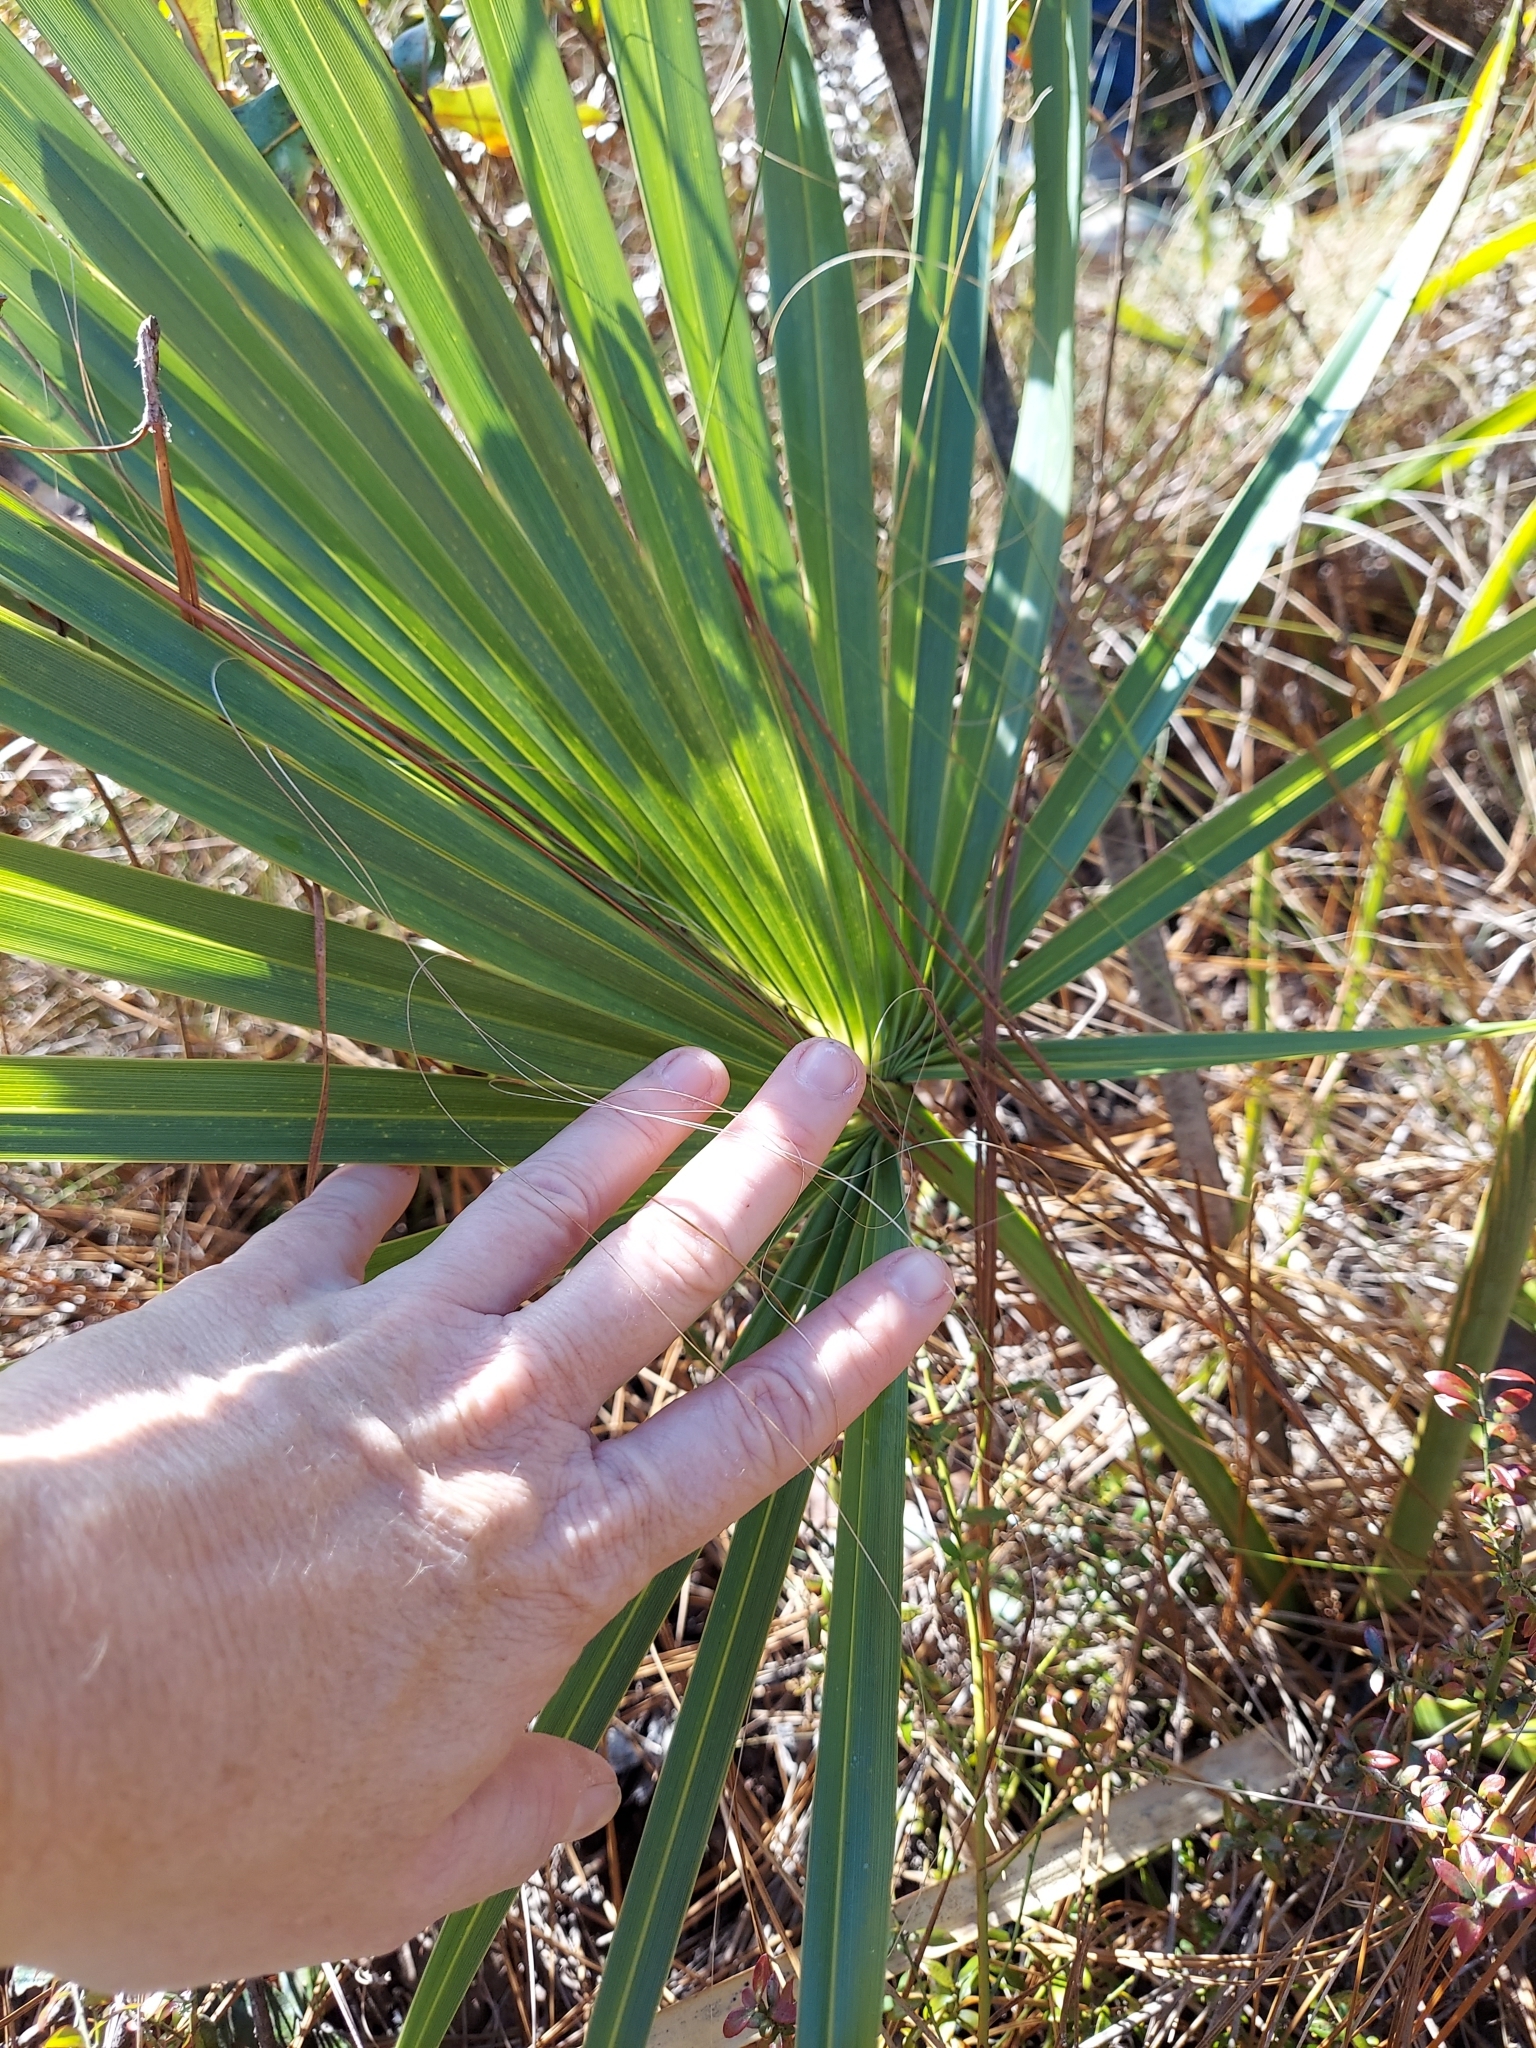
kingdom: Plantae
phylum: Tracheophyta
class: Liliopsida
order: Arecales
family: Arecaceae
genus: Sabal
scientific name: Sabal etonia
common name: Dwarf palmetto
